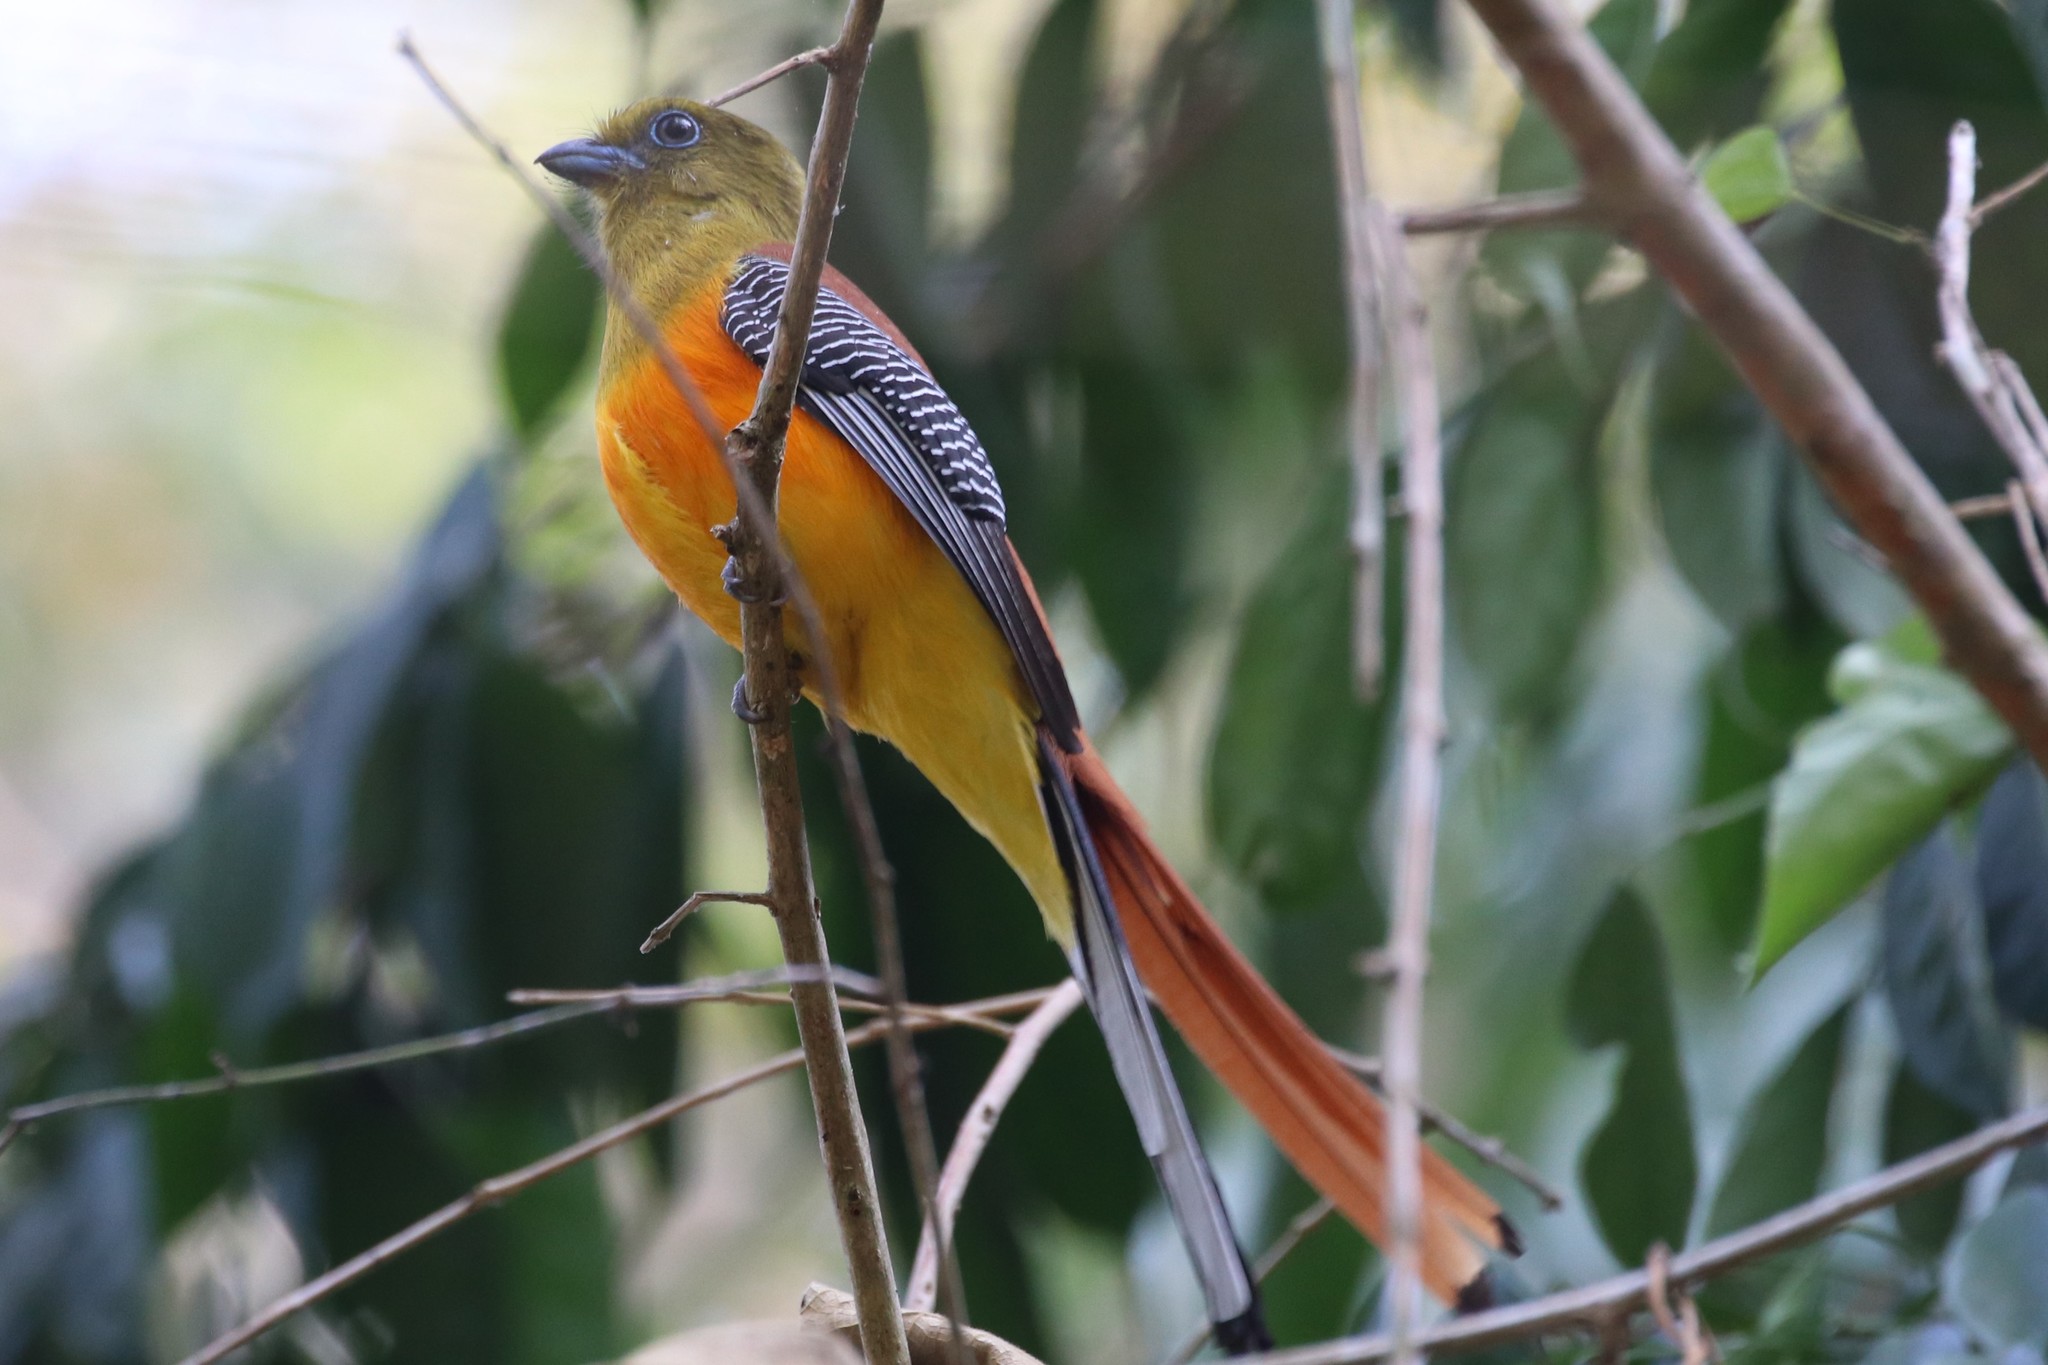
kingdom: Animalia
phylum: Chordata
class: Aves
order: Trogoniformes
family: Trogonidae
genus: Harpactes
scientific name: Harpactes oreskios
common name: Orange-breasted trogon
